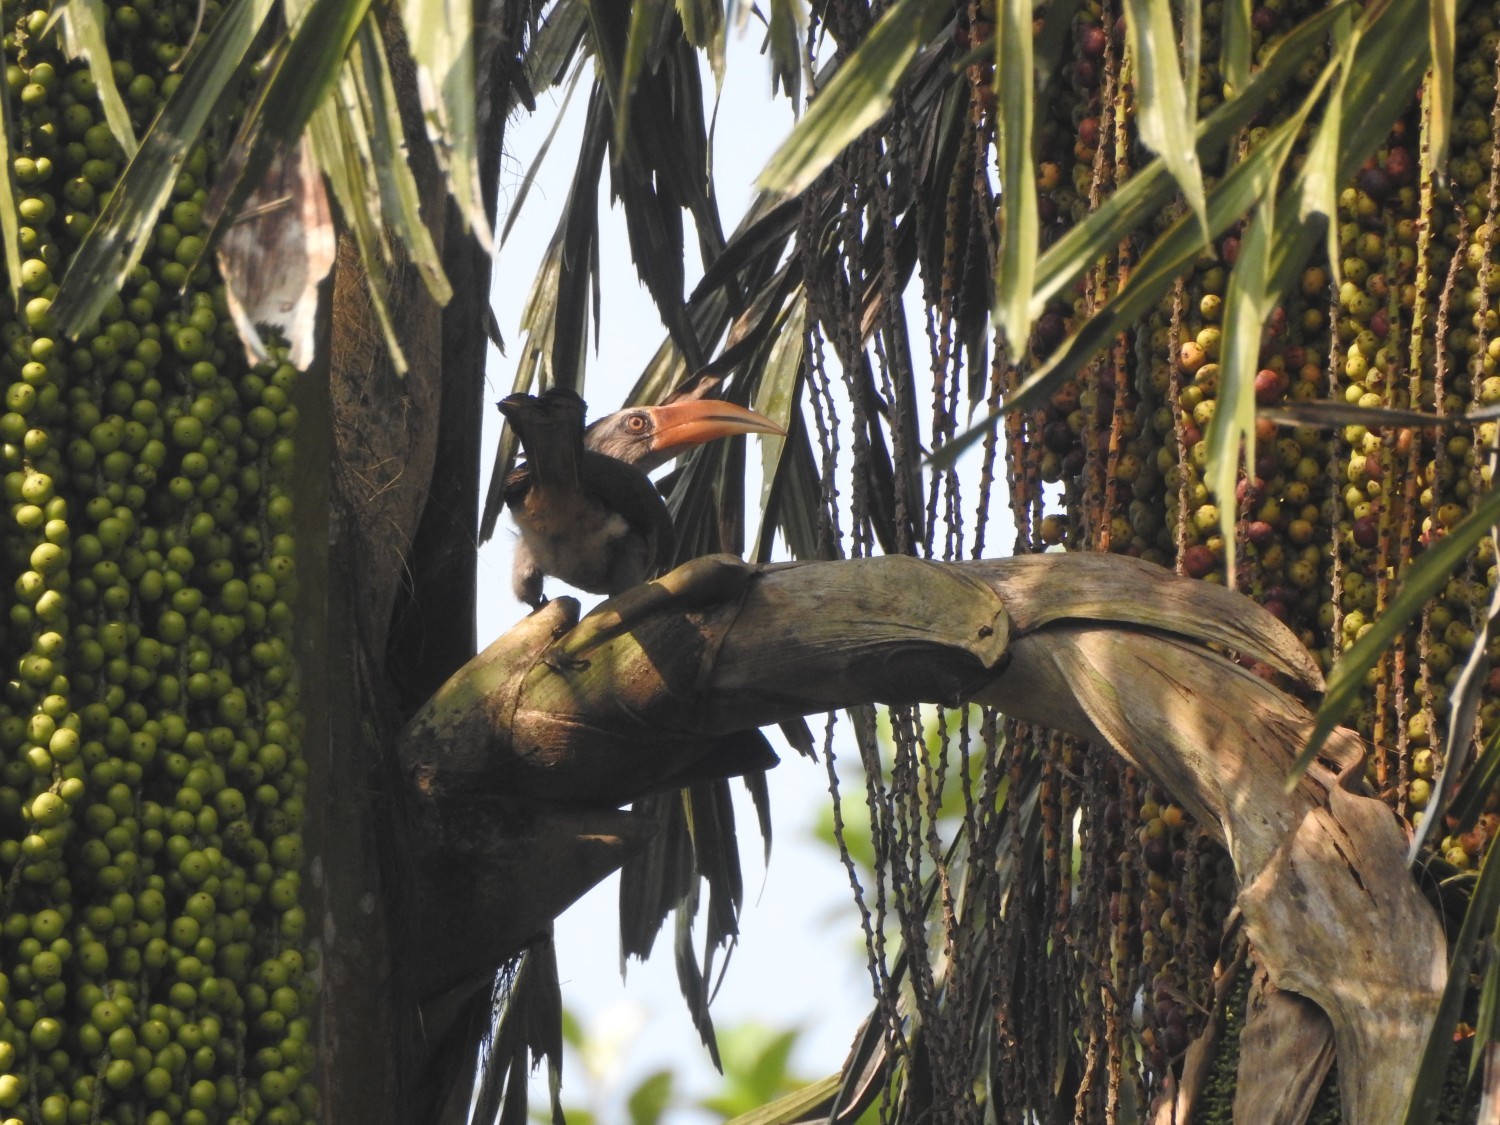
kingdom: Animalia
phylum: Chordata
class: Aves
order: Bucerotiformes
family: Bucerotidae
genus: Ocyceros
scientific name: Ocyceros griseus
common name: Malabar grey hornbill
